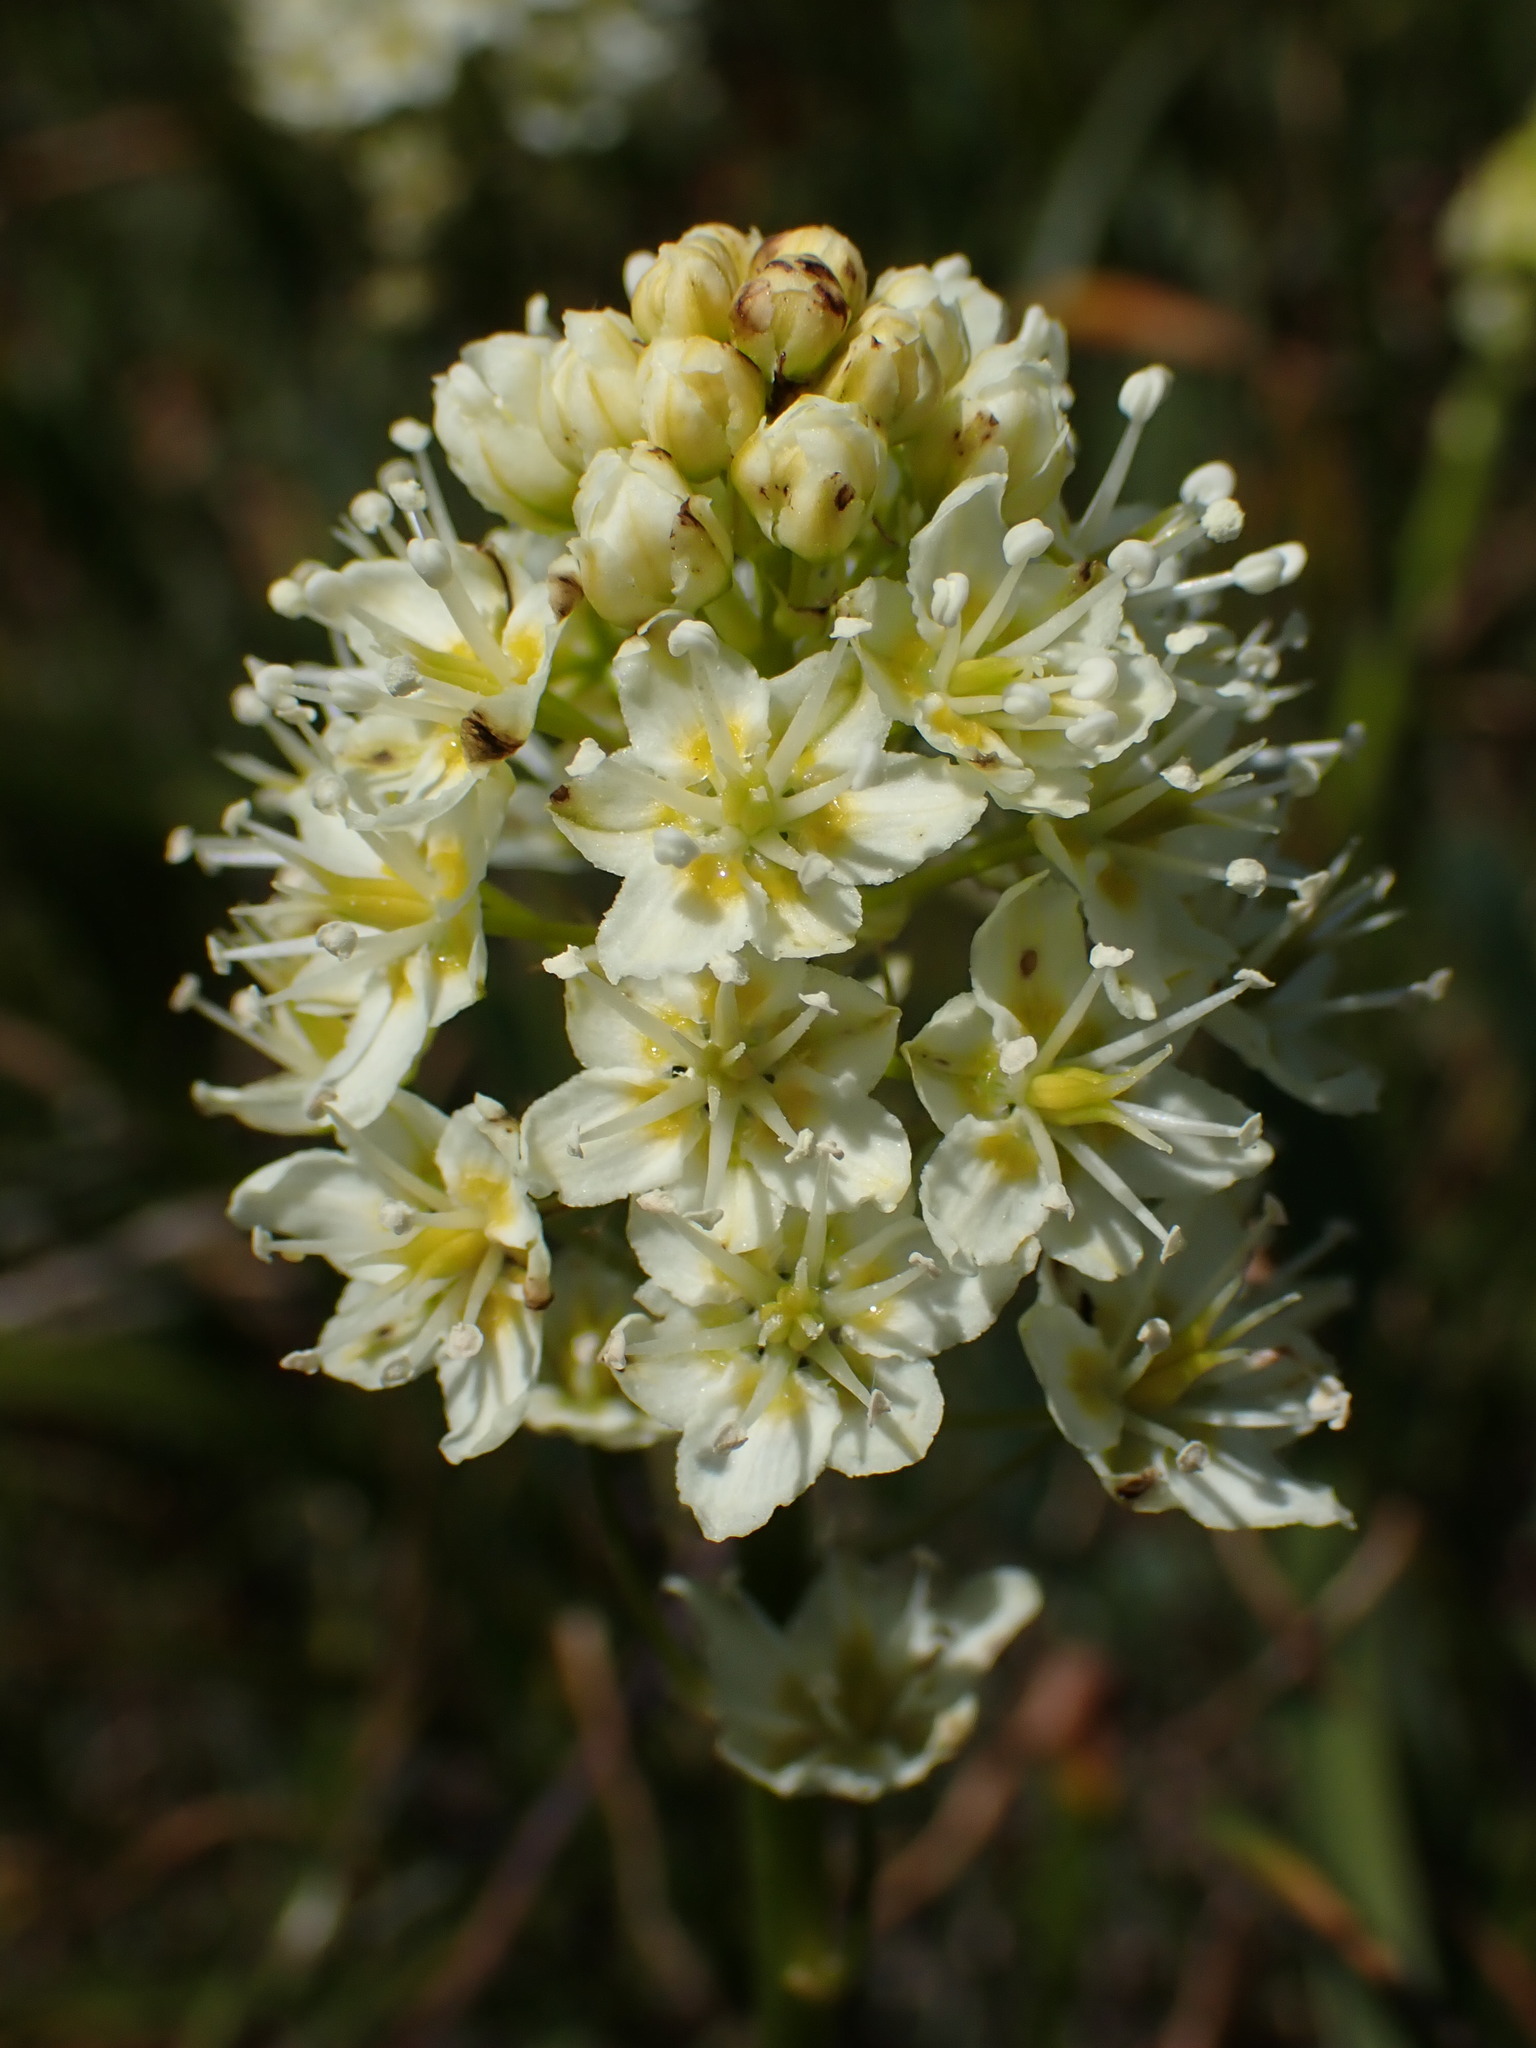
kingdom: Plantae
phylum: Tracheophyta
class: Liliopsida
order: Liliales
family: Melanthiaceae
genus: Toxicoscordion
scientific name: Toxicoscordion venenosum
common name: Meadow death camas
